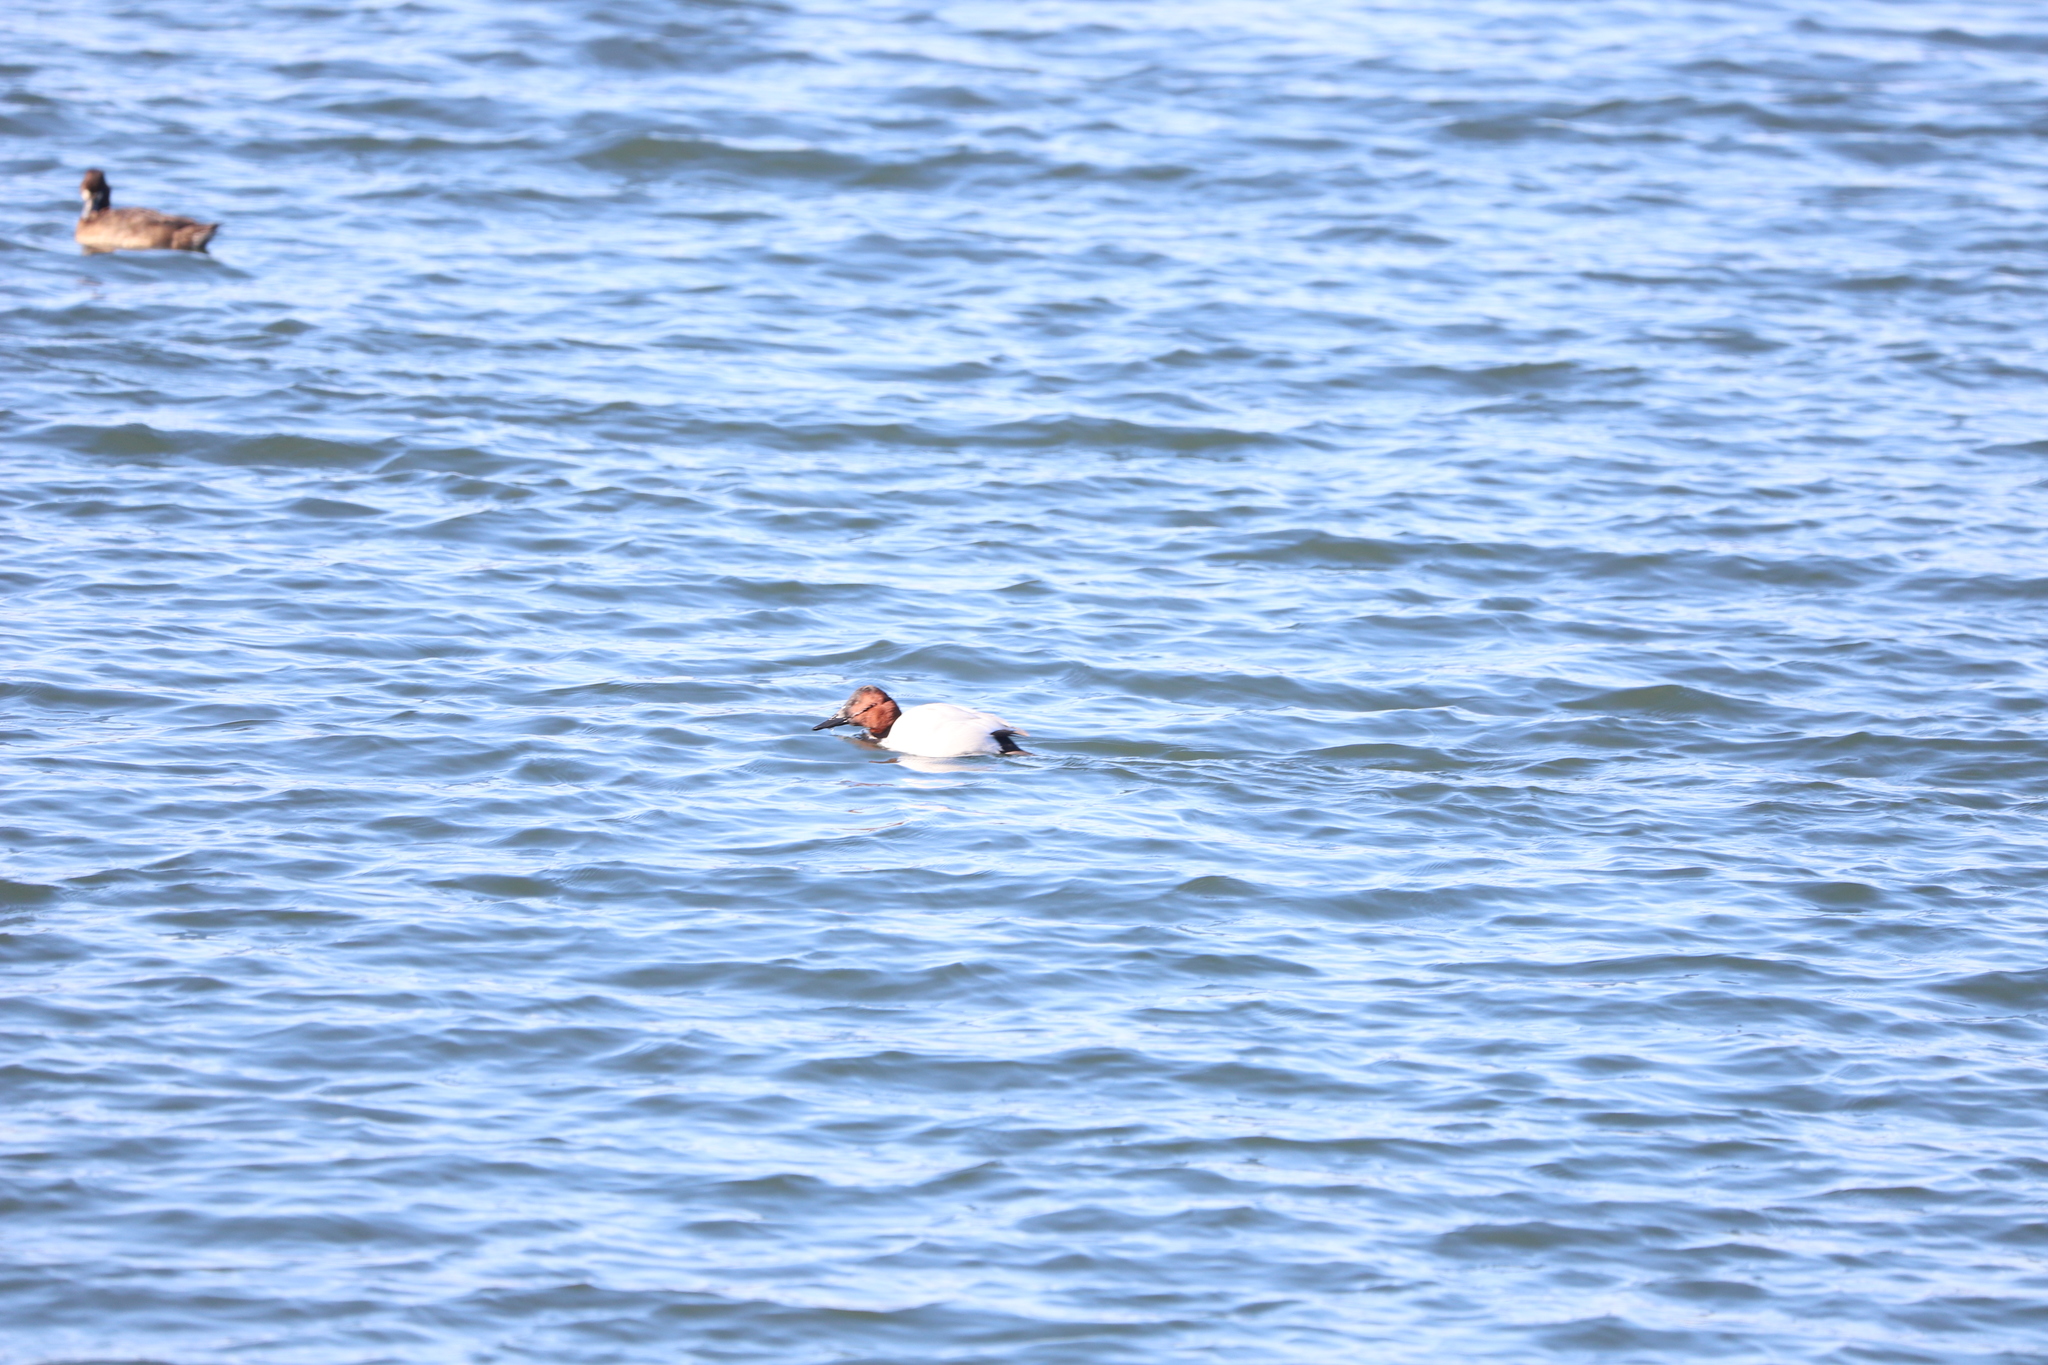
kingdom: Animalia
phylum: Chordata
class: Aves
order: Anseriformes
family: Anatidae
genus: Aythya
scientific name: Aythya valisineria
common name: Canvasback
